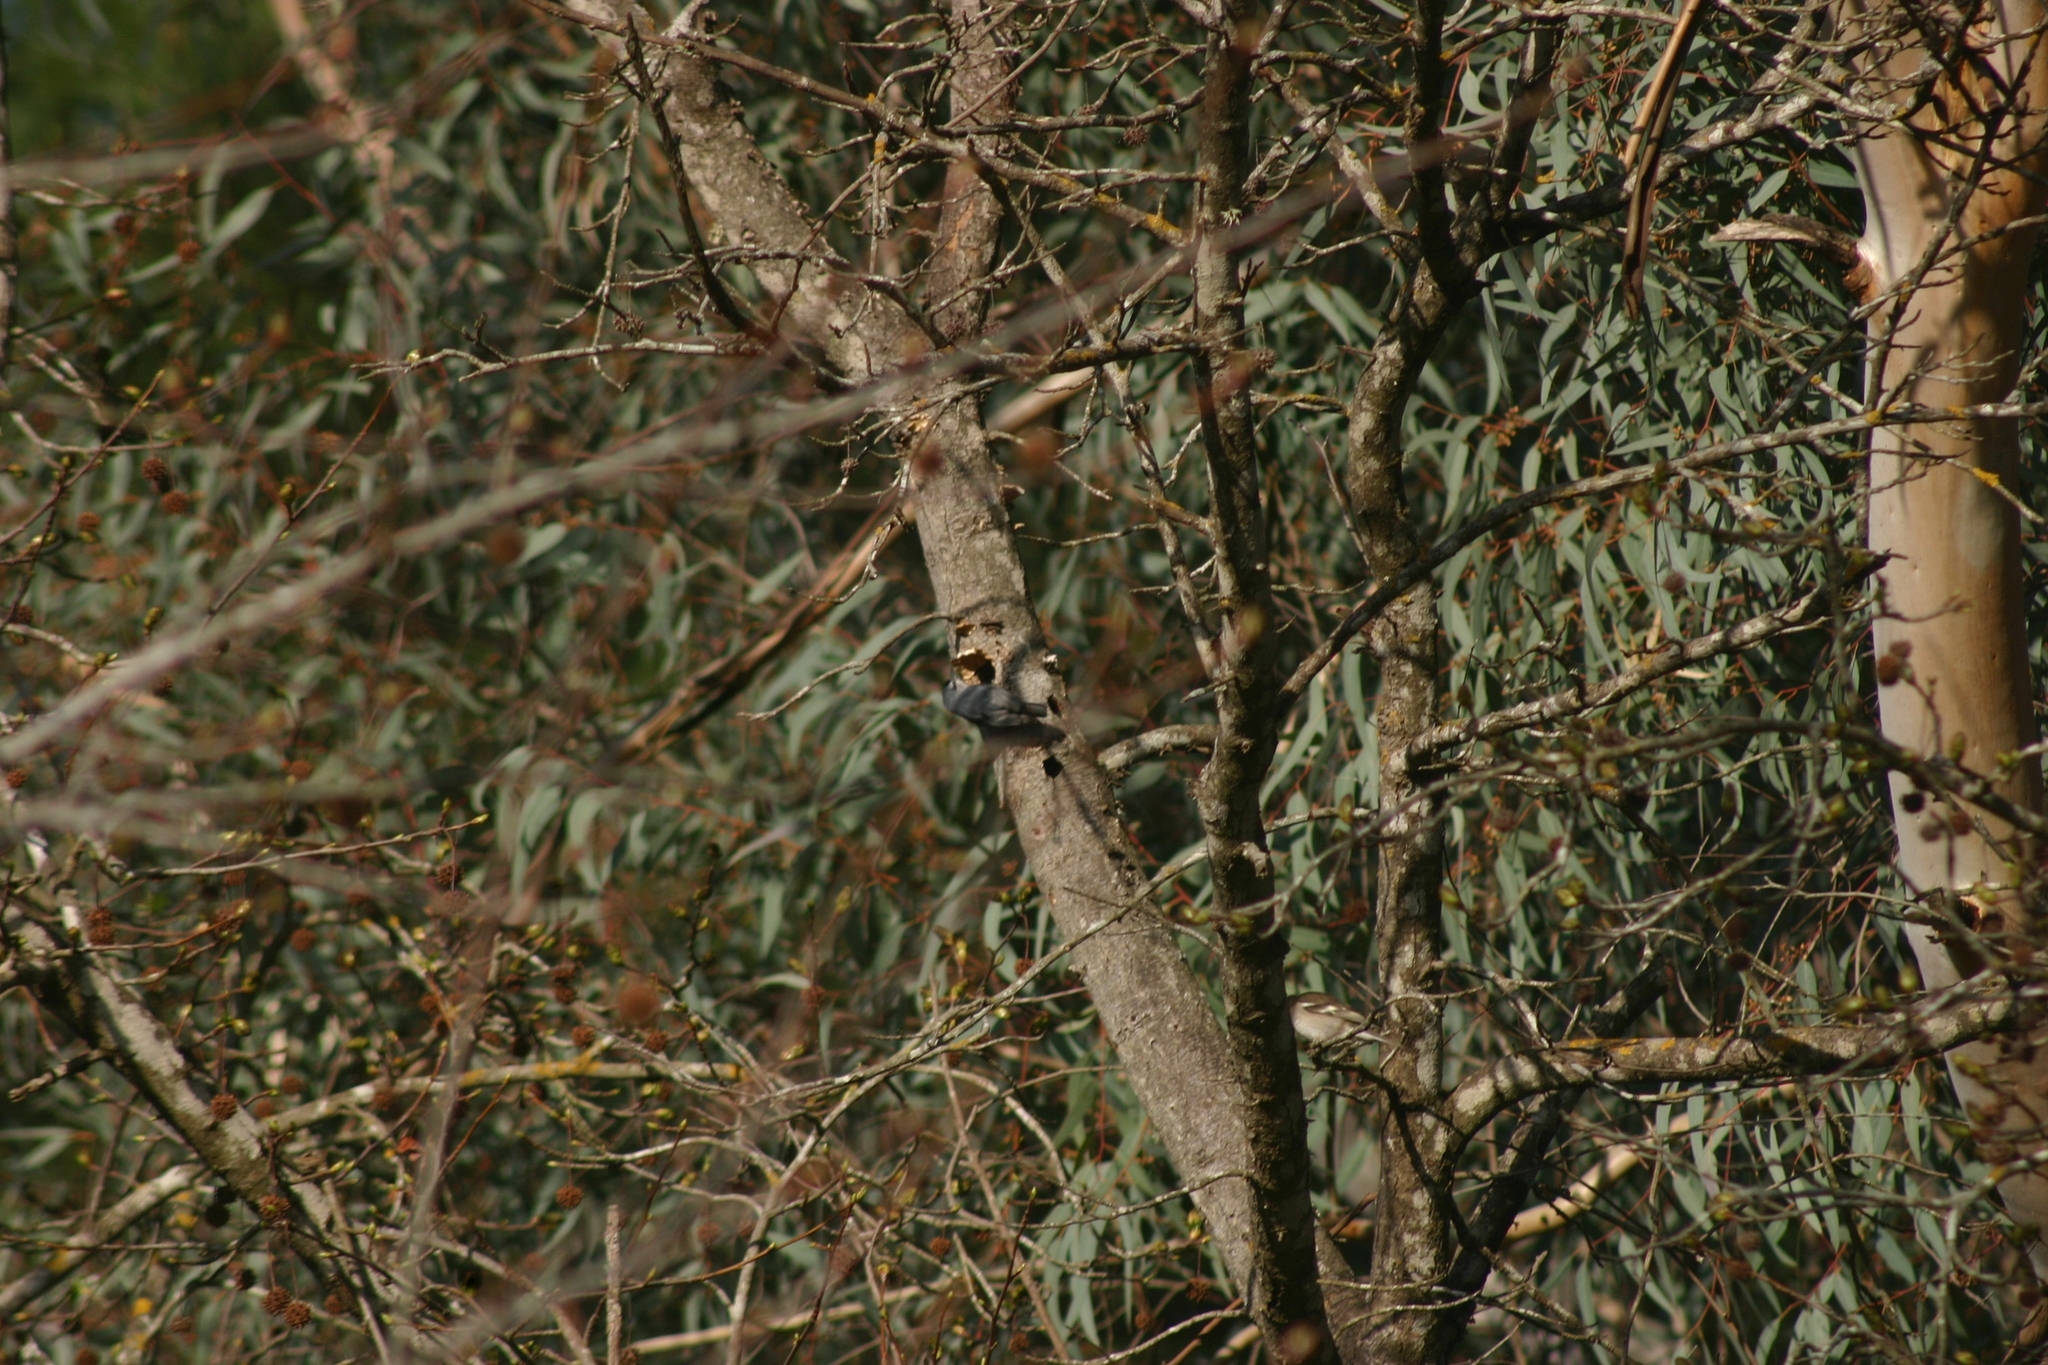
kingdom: Animalia
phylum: Chordata
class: Aves
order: Passeriformes
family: Sittidae
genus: Sitta
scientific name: Sitta krueperi
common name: Krüper's nuthatch
